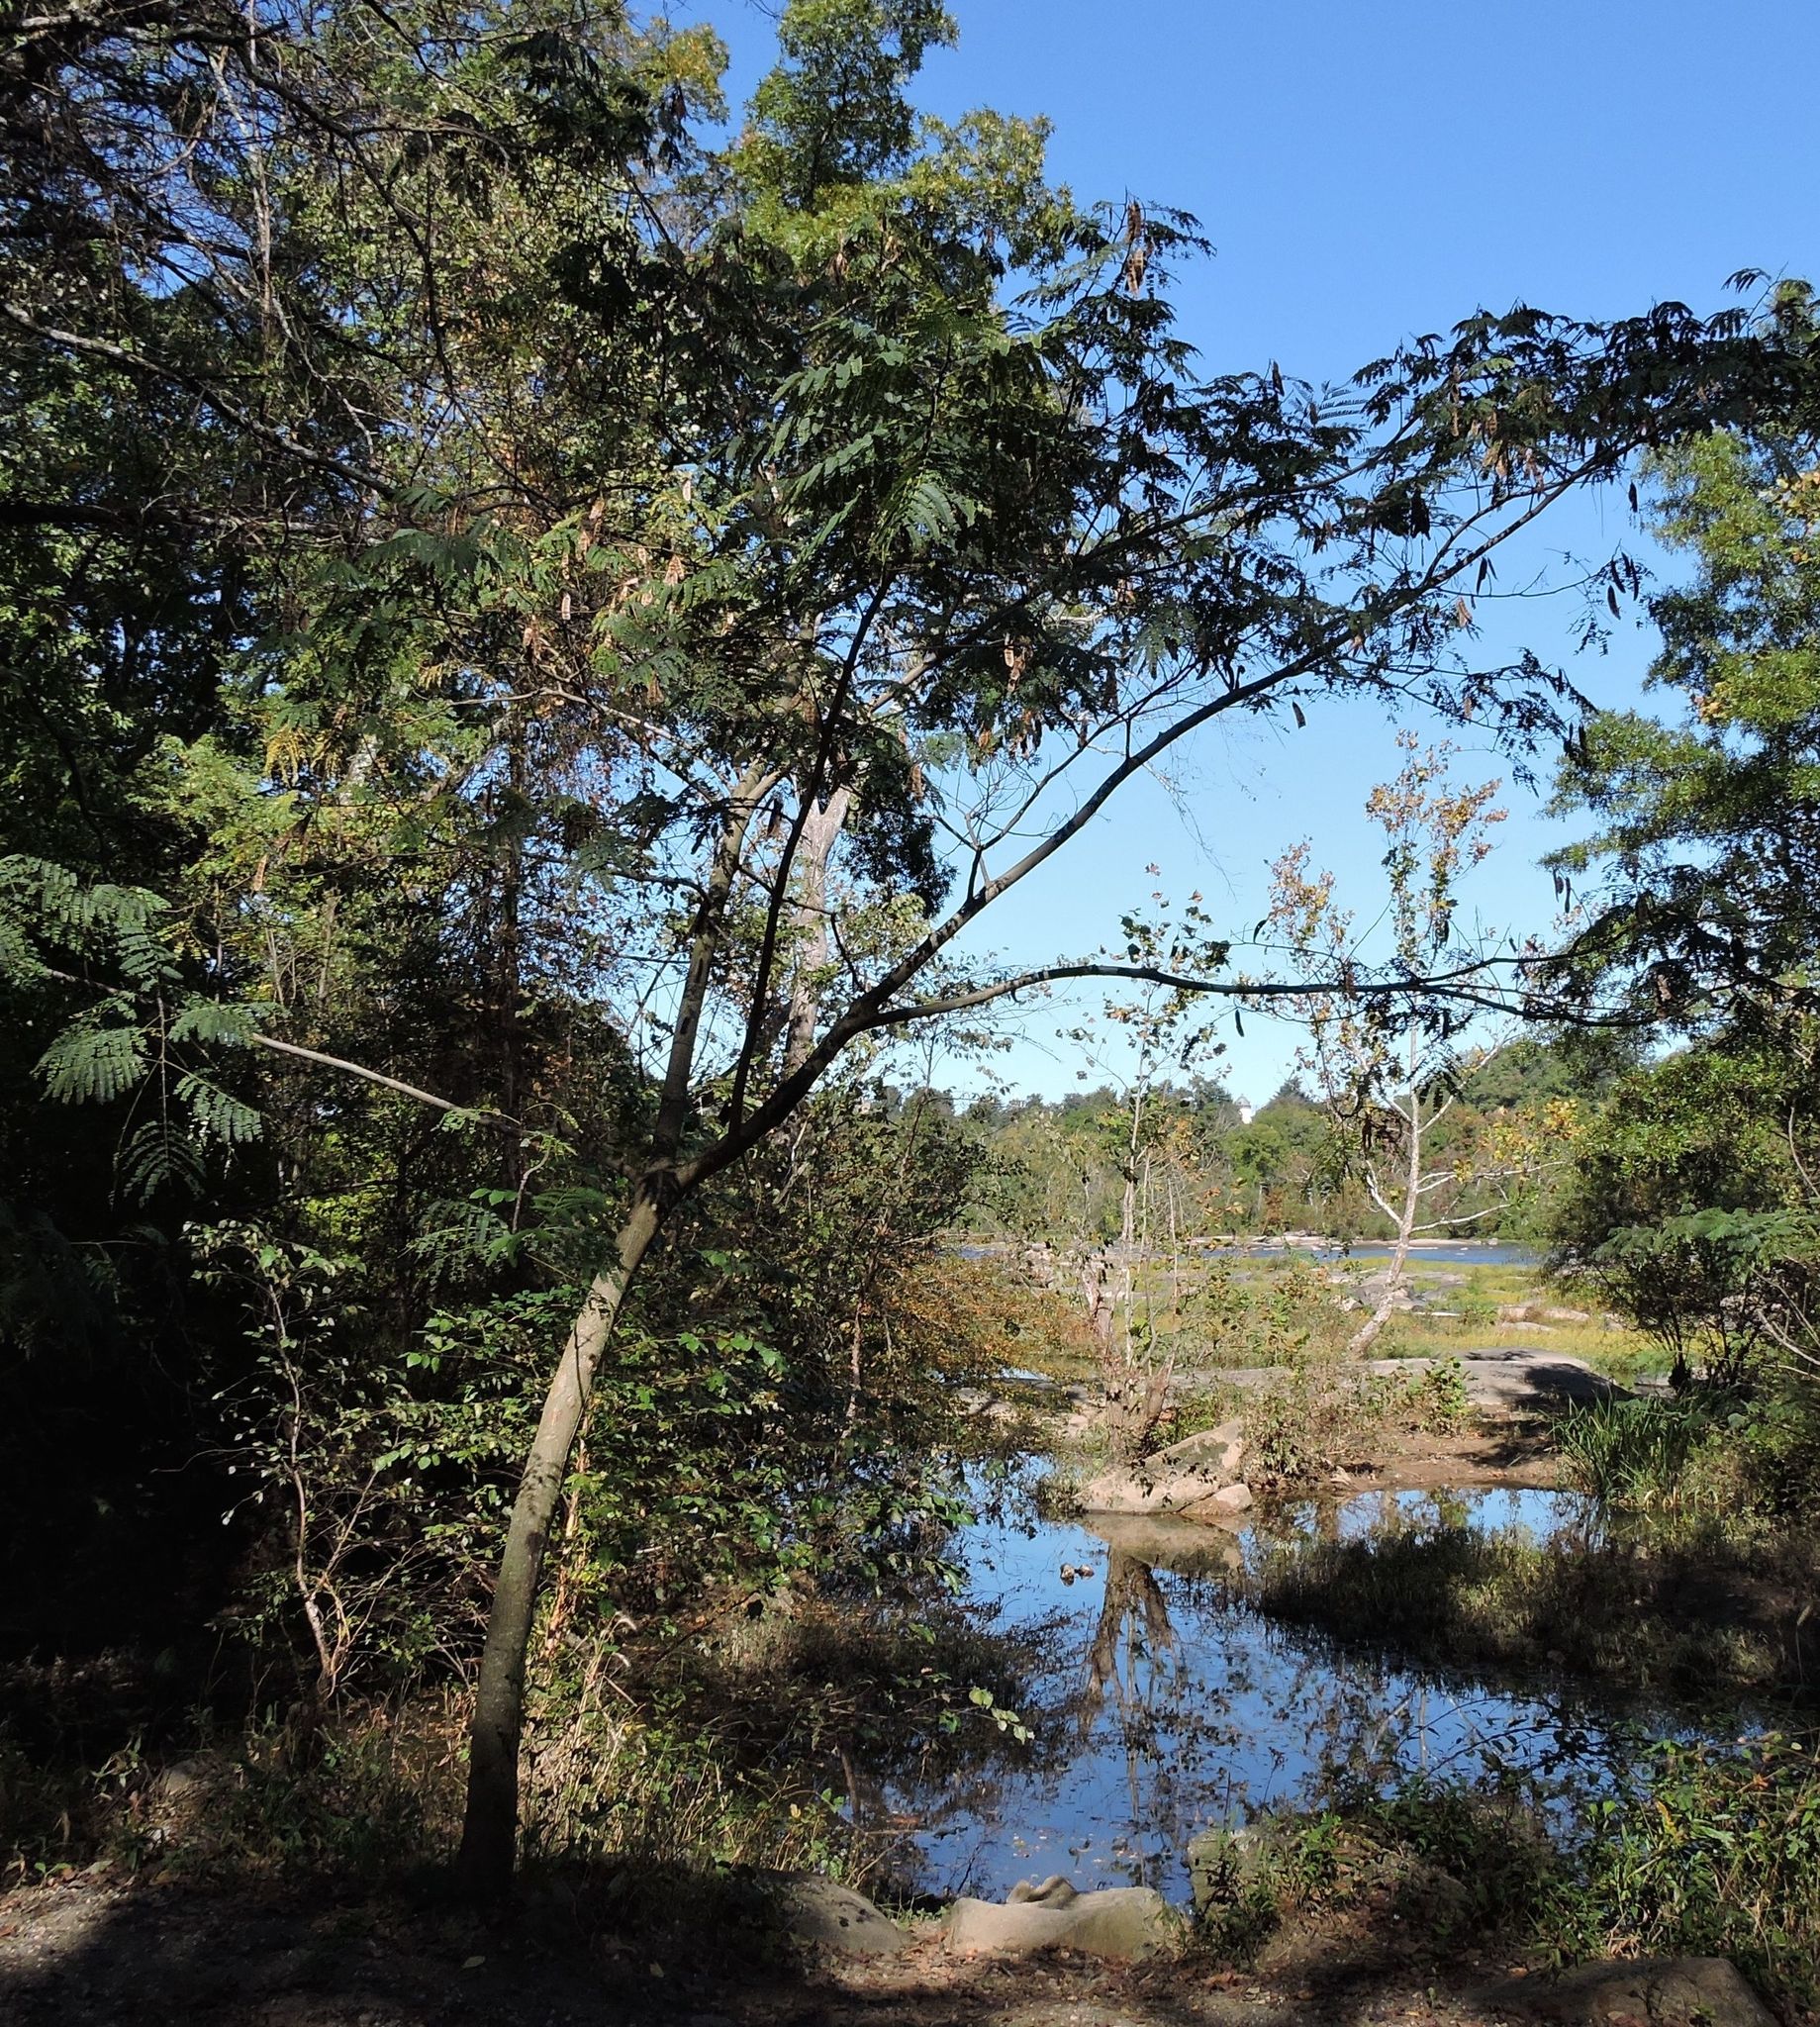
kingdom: Plantae
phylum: Tracheophyta
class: Magnoliopsida
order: Fabales
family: Fabaceae
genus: Albizia
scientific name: Albizia julibrissin
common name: Silktree
